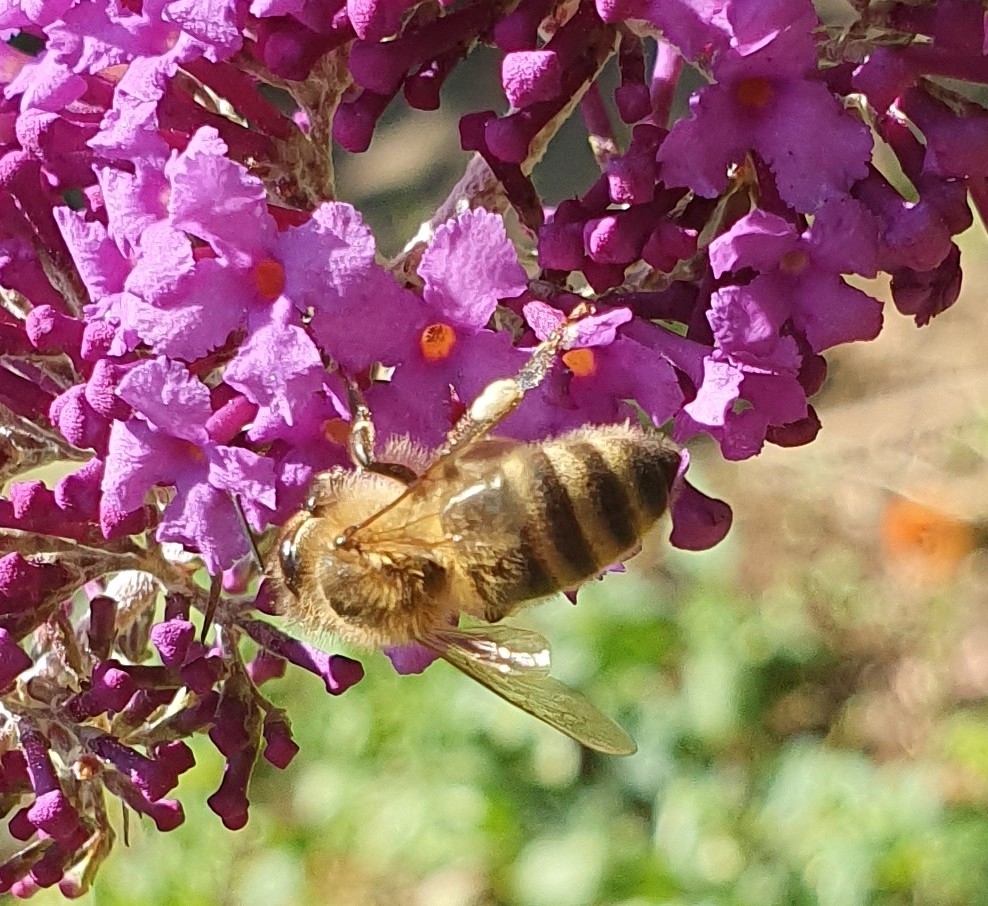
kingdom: Animalia
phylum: Arthropoda
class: Insecta
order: Hymenoptera
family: Apidae
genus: Apis
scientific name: Apis mellifera
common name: Honey bee
